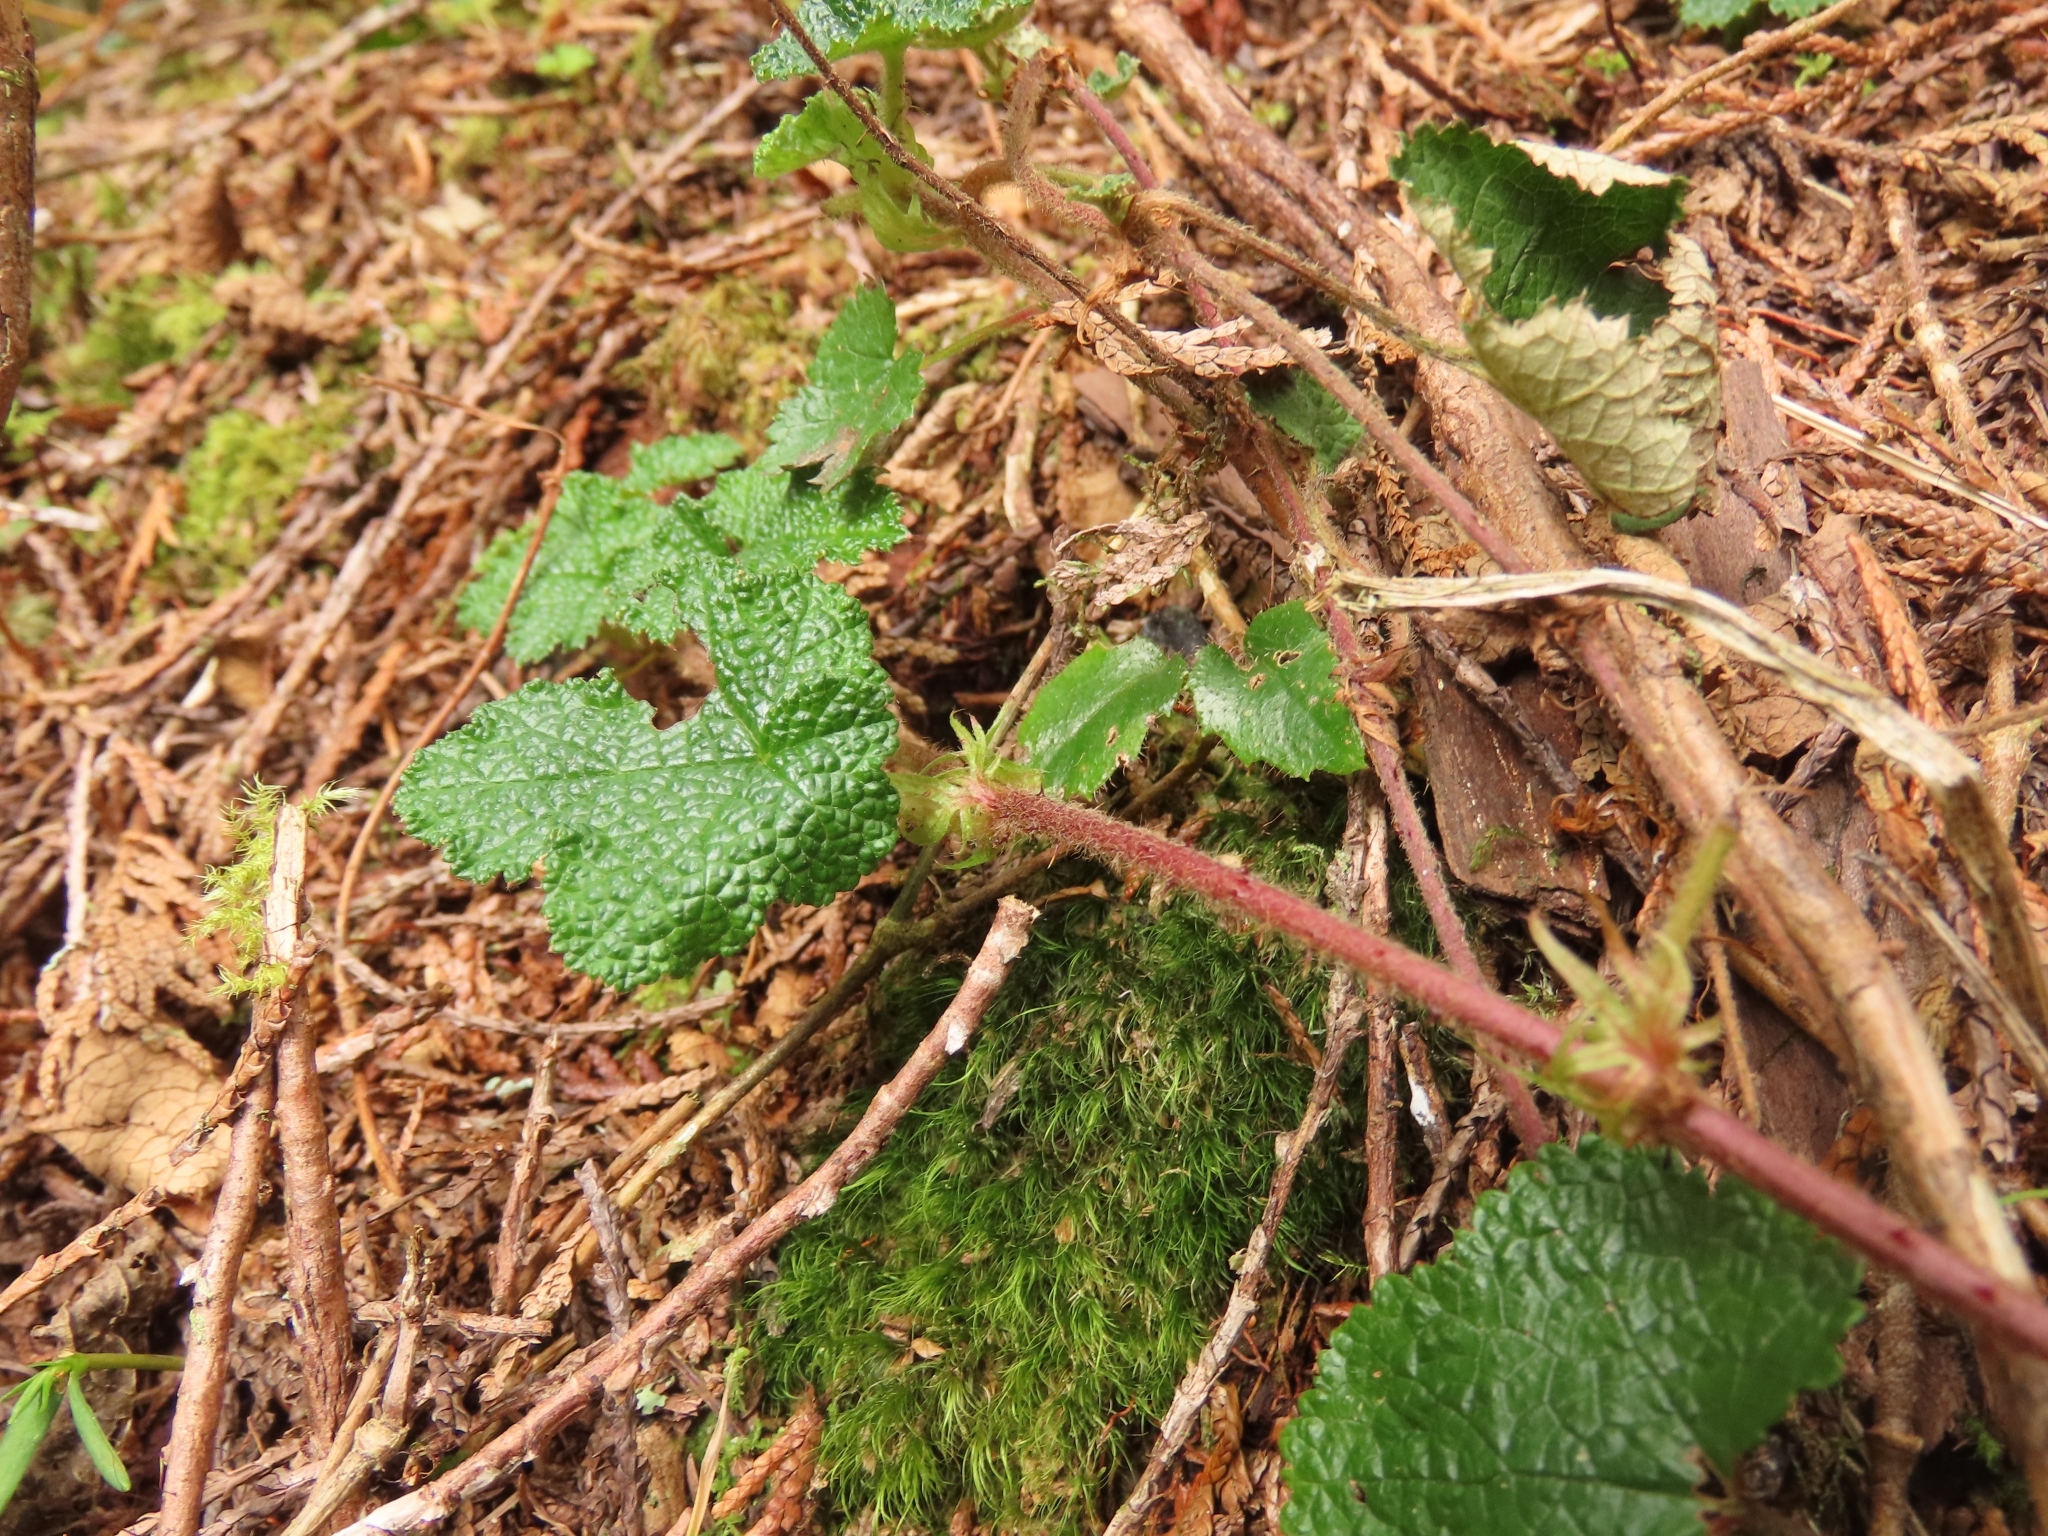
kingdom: Plantae
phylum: Tracheophyta
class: Magnoliopsida
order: Rosales
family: Rosaceae
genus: Rubus
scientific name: Rubus rolfei
